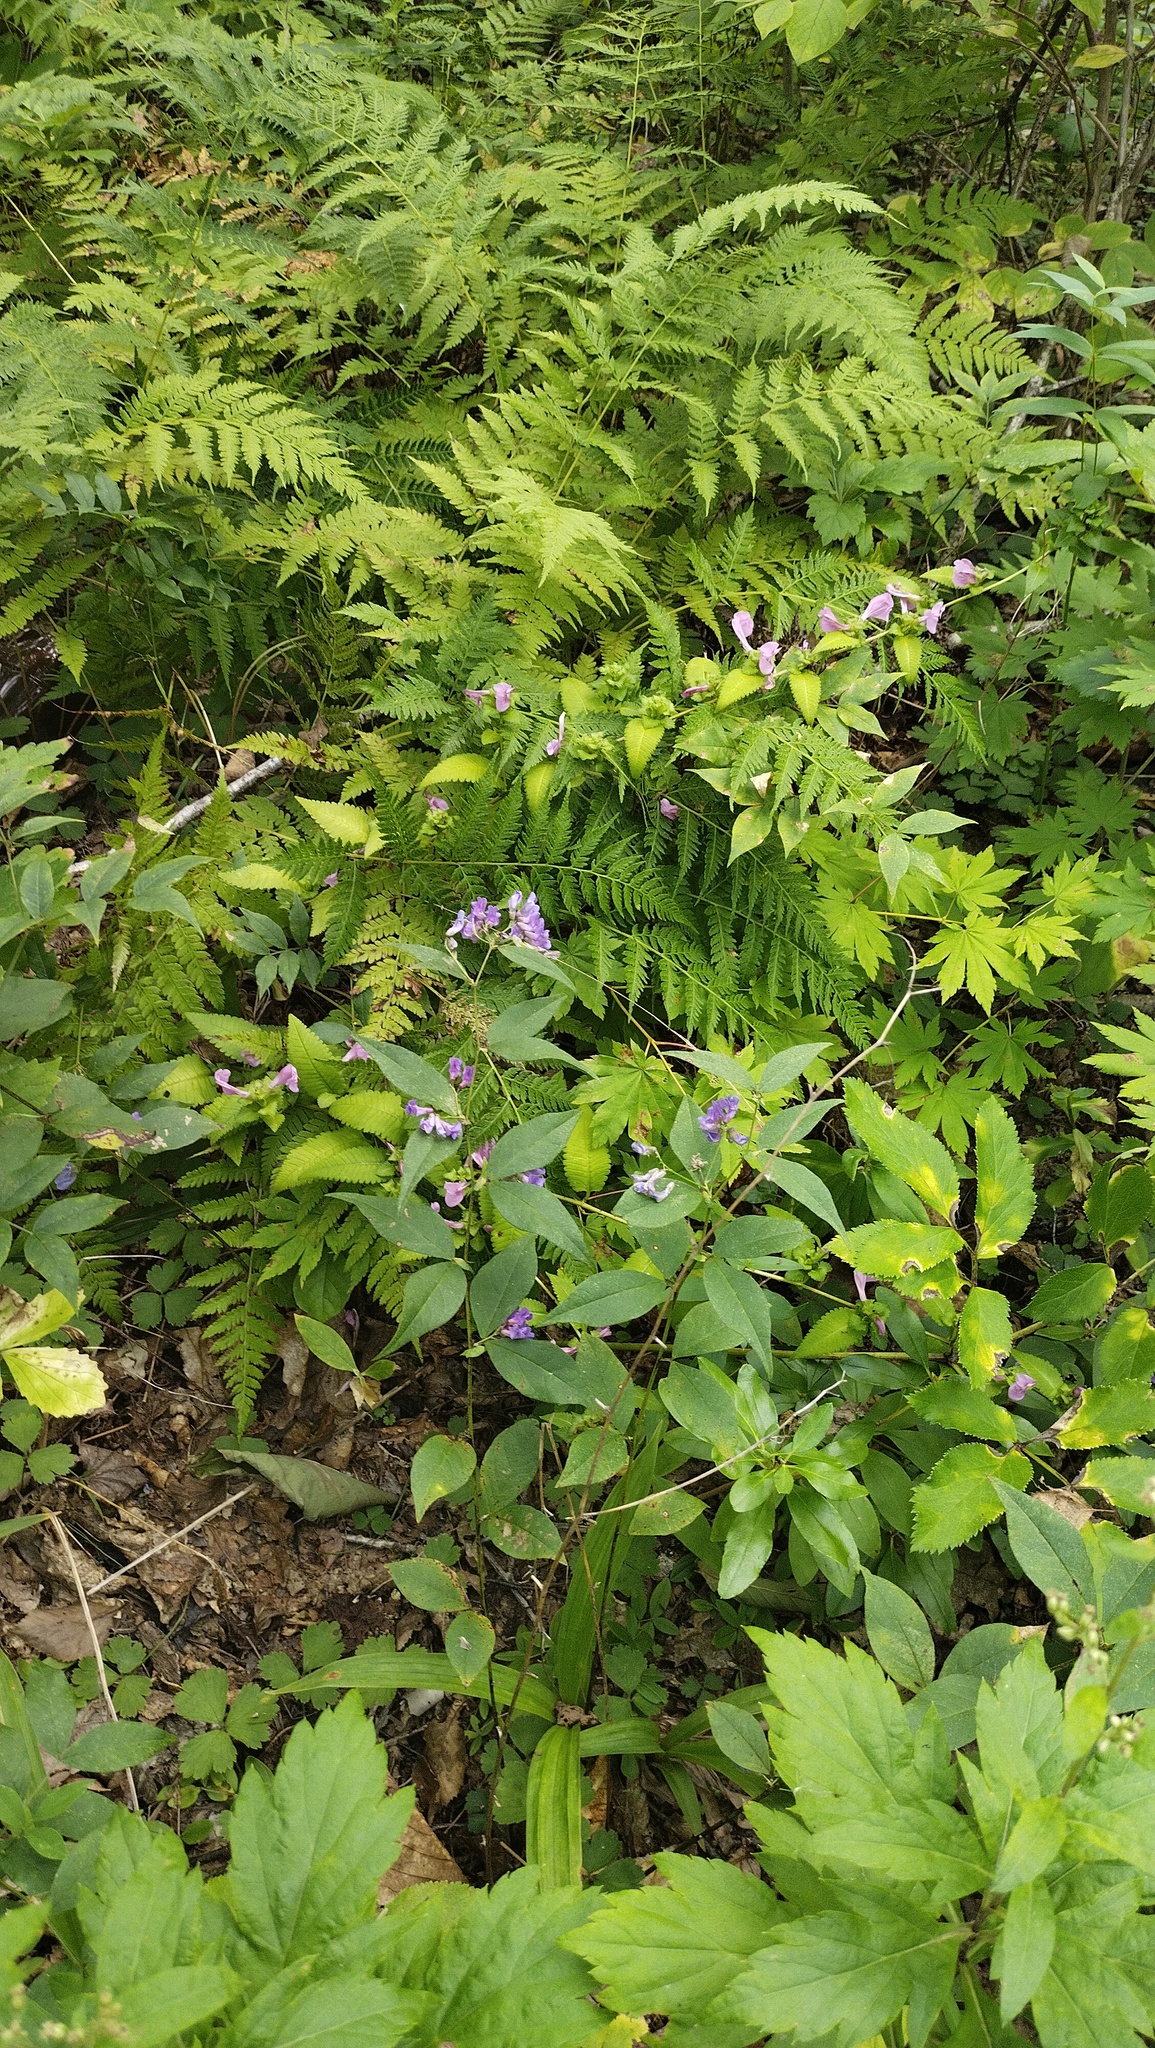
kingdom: Plantae
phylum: Tracheophyta
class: Magnoliopsida
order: Fabales
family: Fabaceae
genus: Vicia
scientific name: Vicia unijuga
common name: Two-leaf vetch
